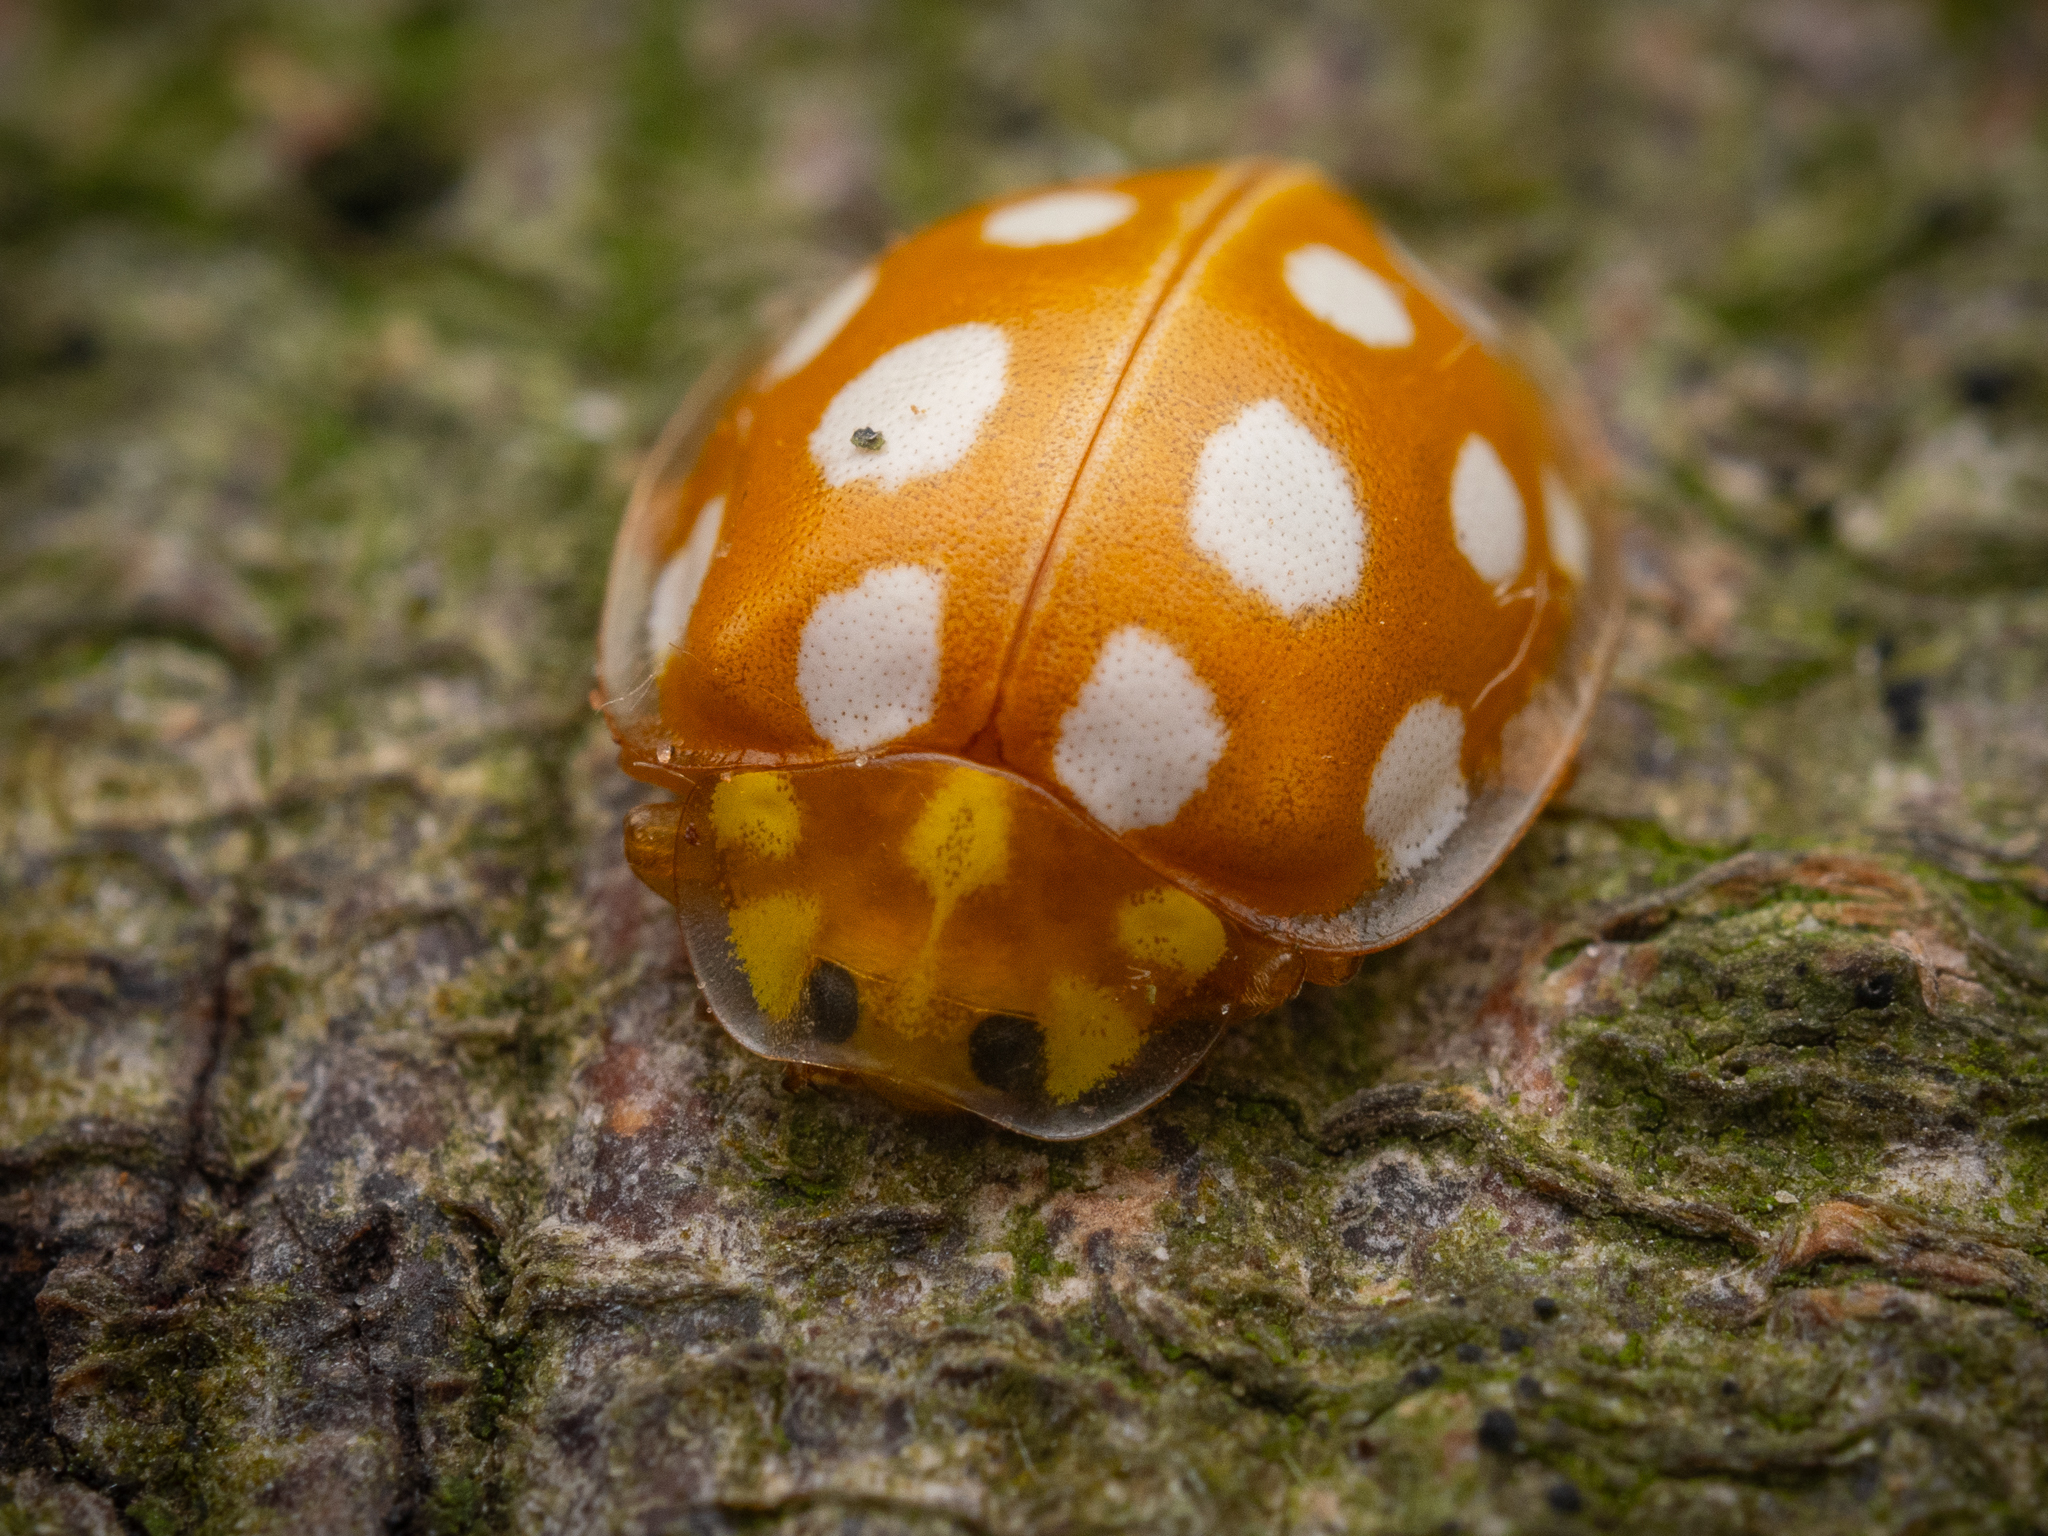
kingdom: Animalia
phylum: Arthropoda
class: Insecta
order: Coleoptera
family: Coccinellidae
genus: Halyzia
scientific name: Halyzia sedecimguttata
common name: Orange ladybird
